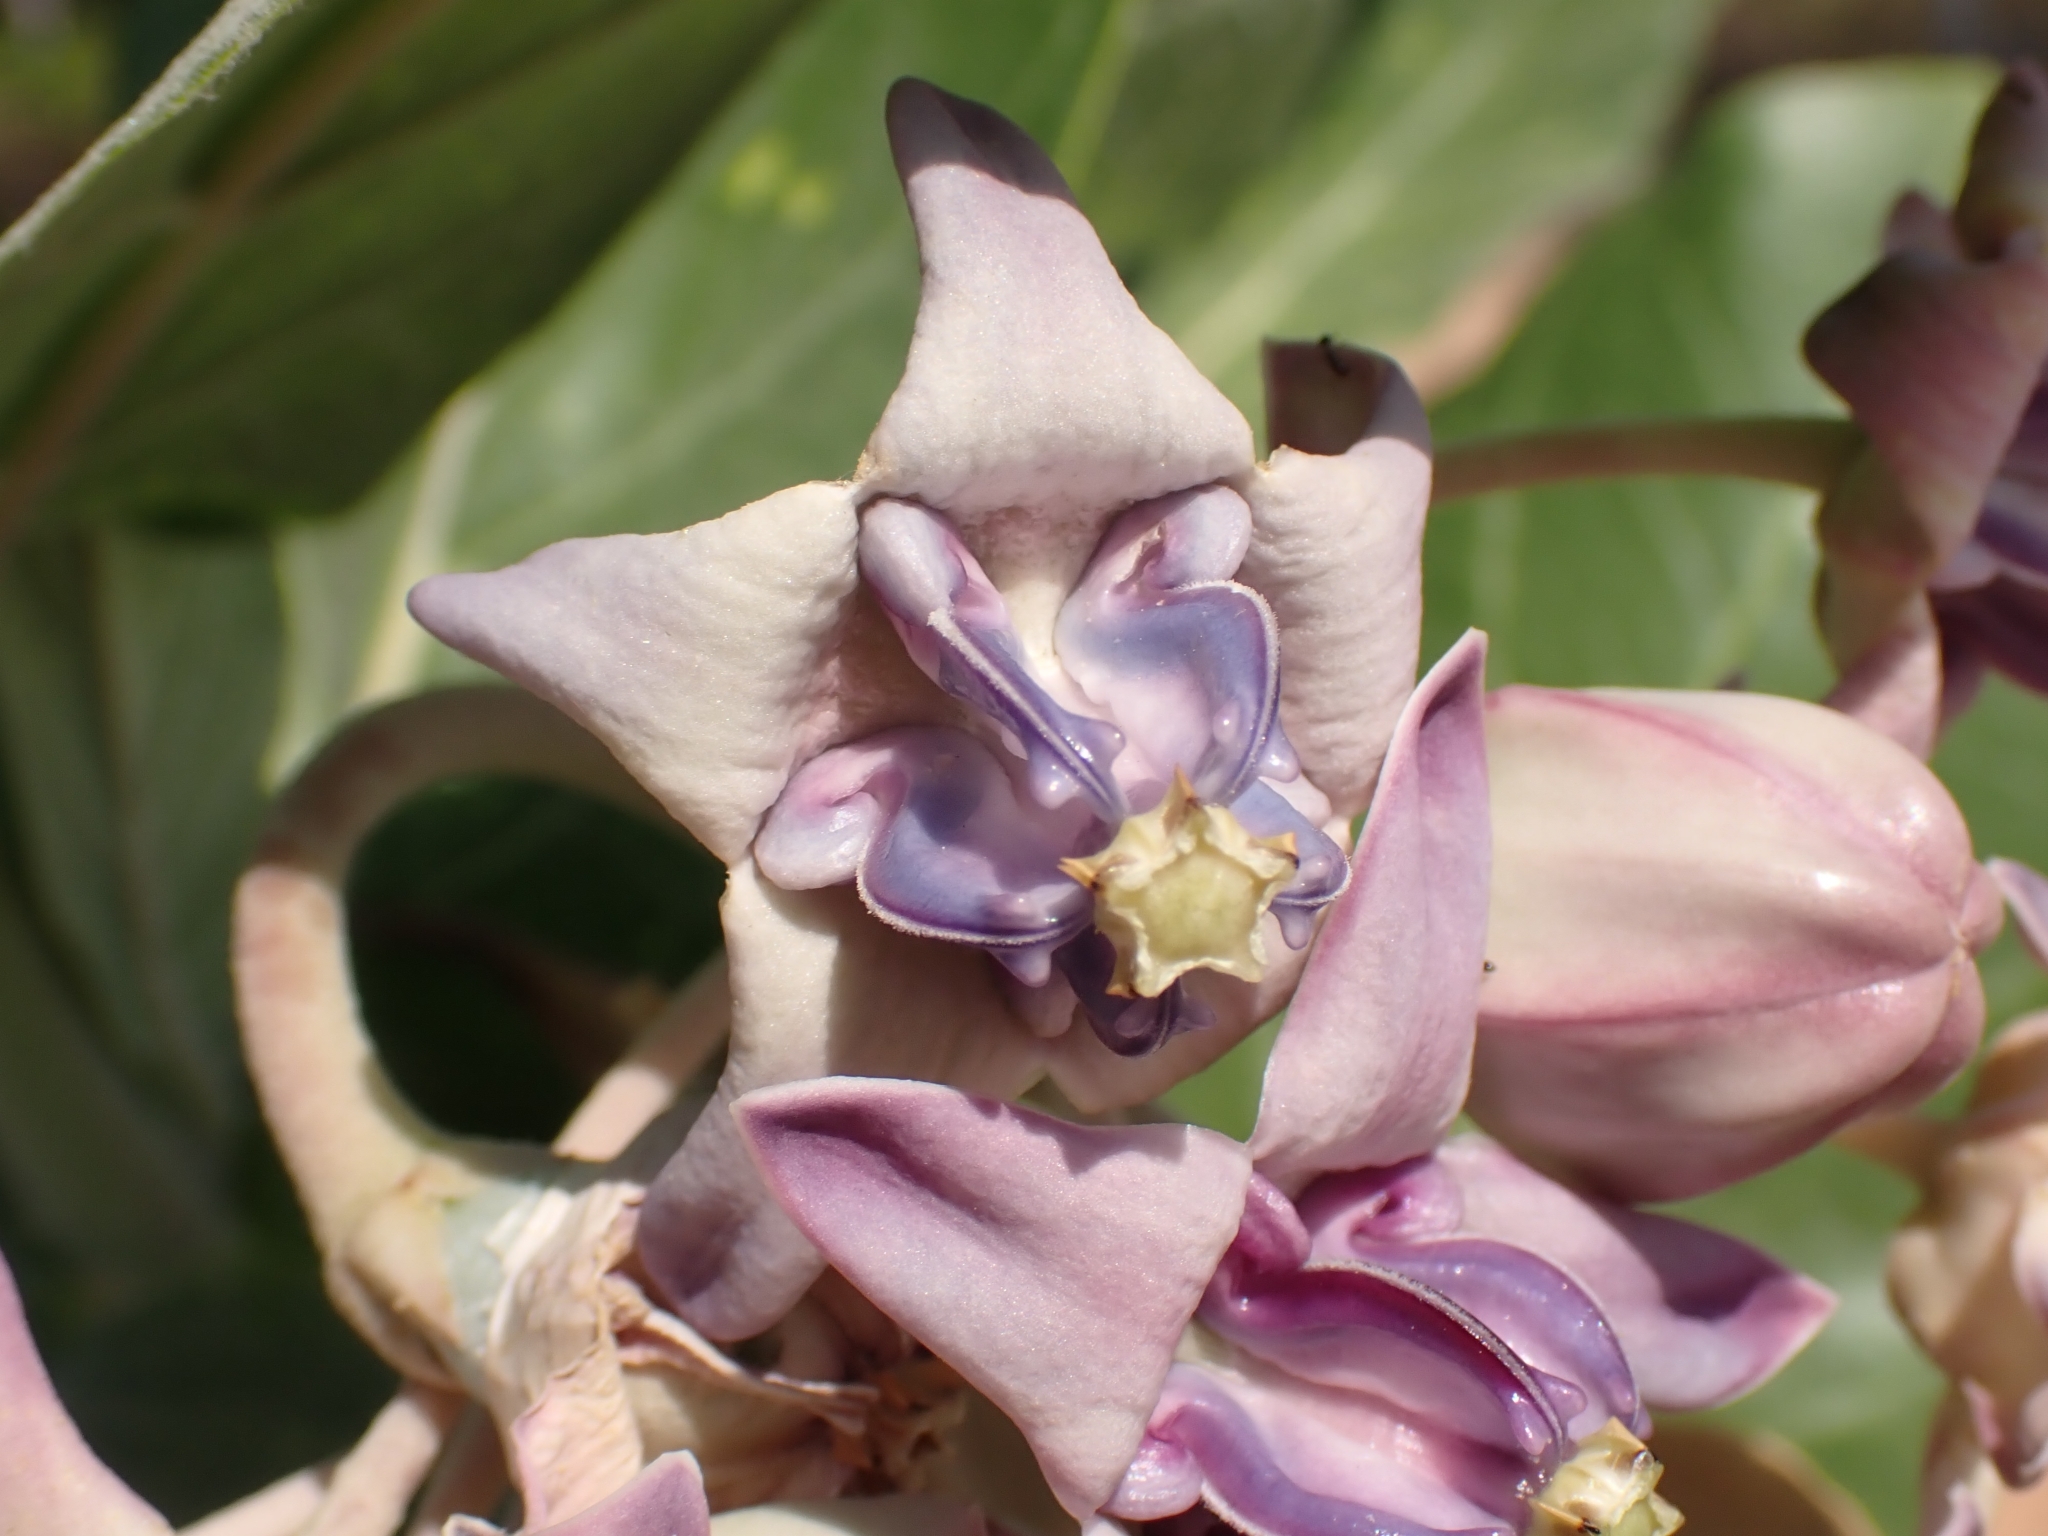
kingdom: Plantae
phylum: Tracheophyta
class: Magnoliopsida
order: Gentianales
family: Apocynaceae
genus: Calotropis
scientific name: Calotropis gigantea
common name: Crown flower
